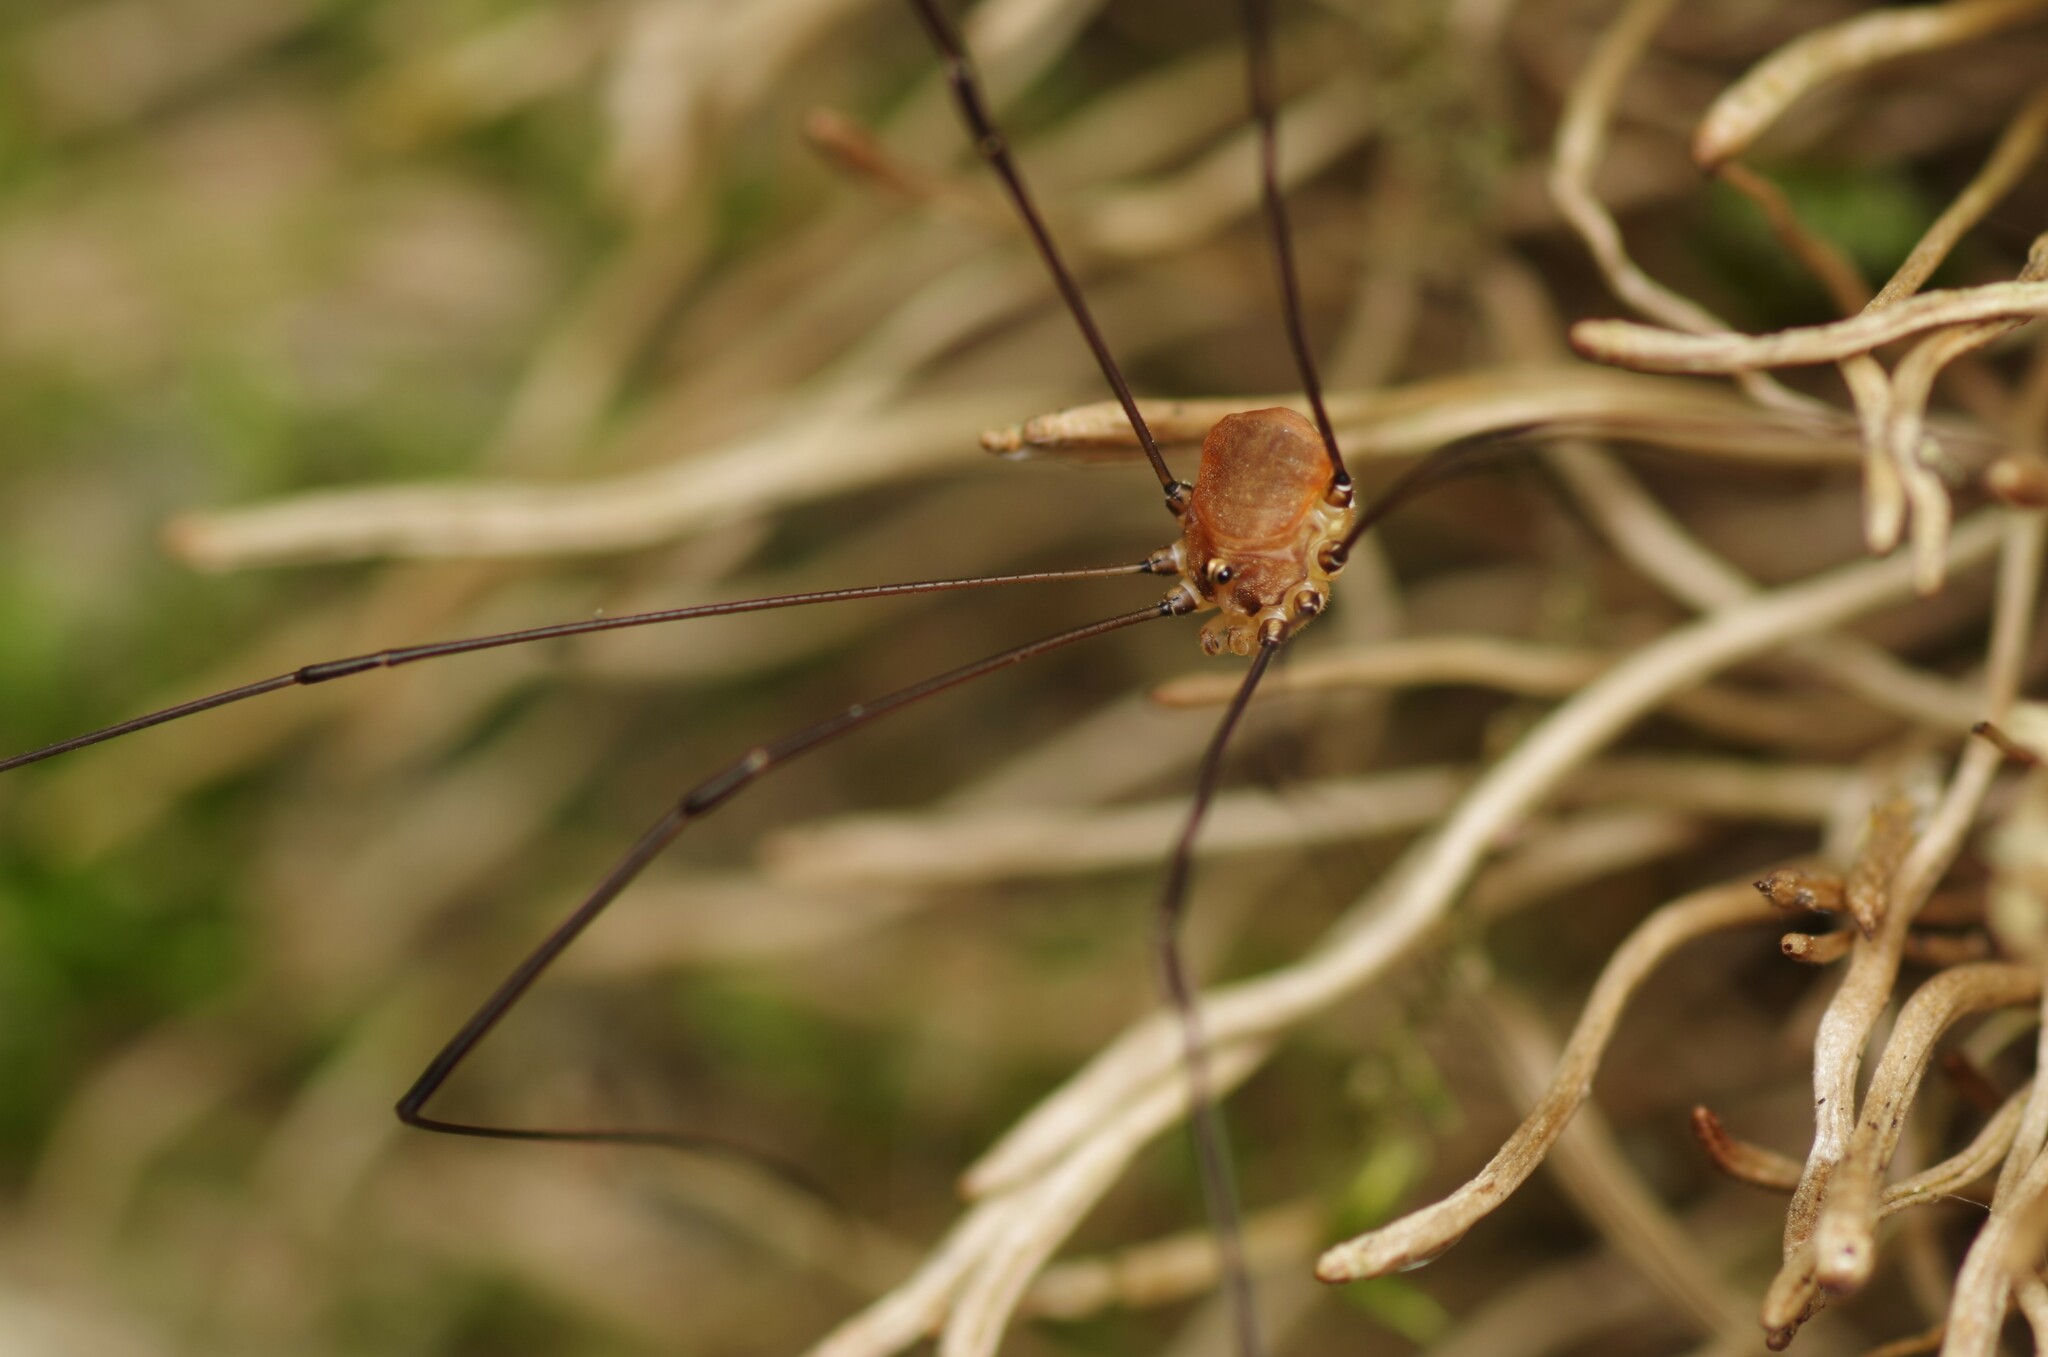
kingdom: Animalia
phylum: Arthropoda
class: Arachnida
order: Opiliones
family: Sclerosomatidae
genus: Leiobunum
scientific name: Leiobunum blackwalli
